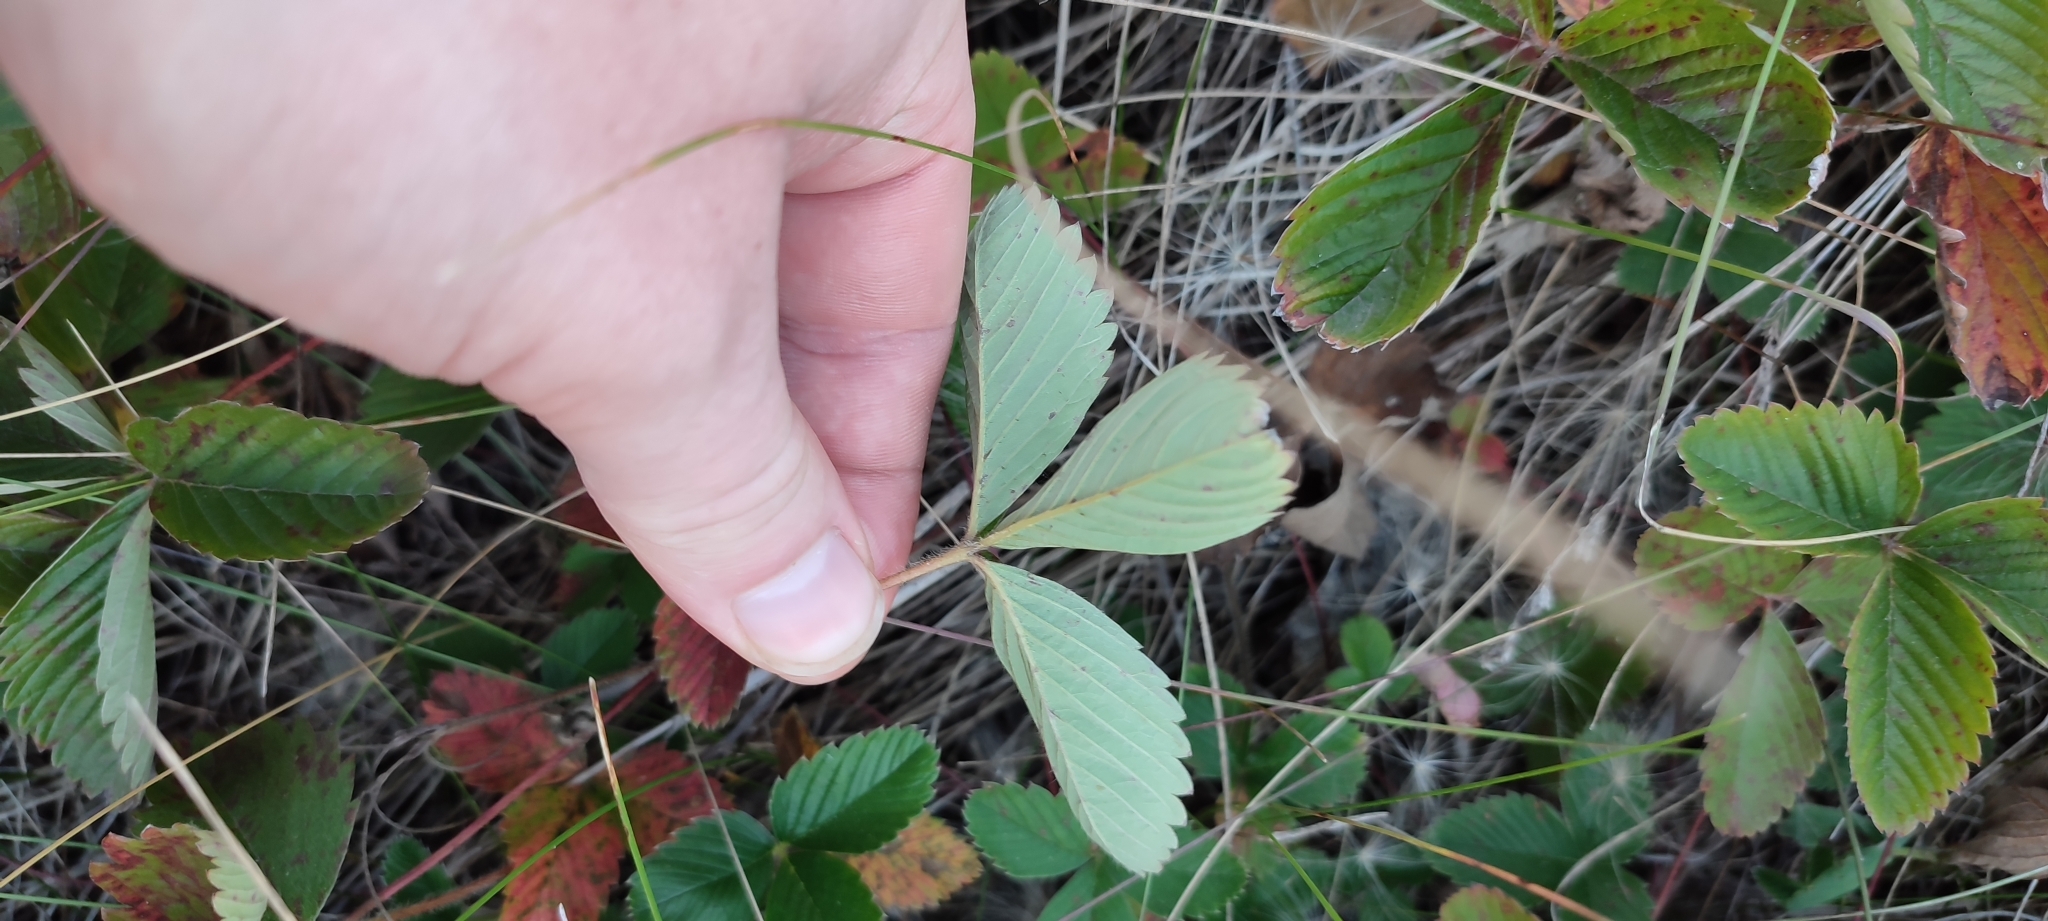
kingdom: Plantae
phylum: Tracheophyta
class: Magnoliopsida
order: Rosales
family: Rosaceae
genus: Fragaria
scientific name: Fragaria viridis
